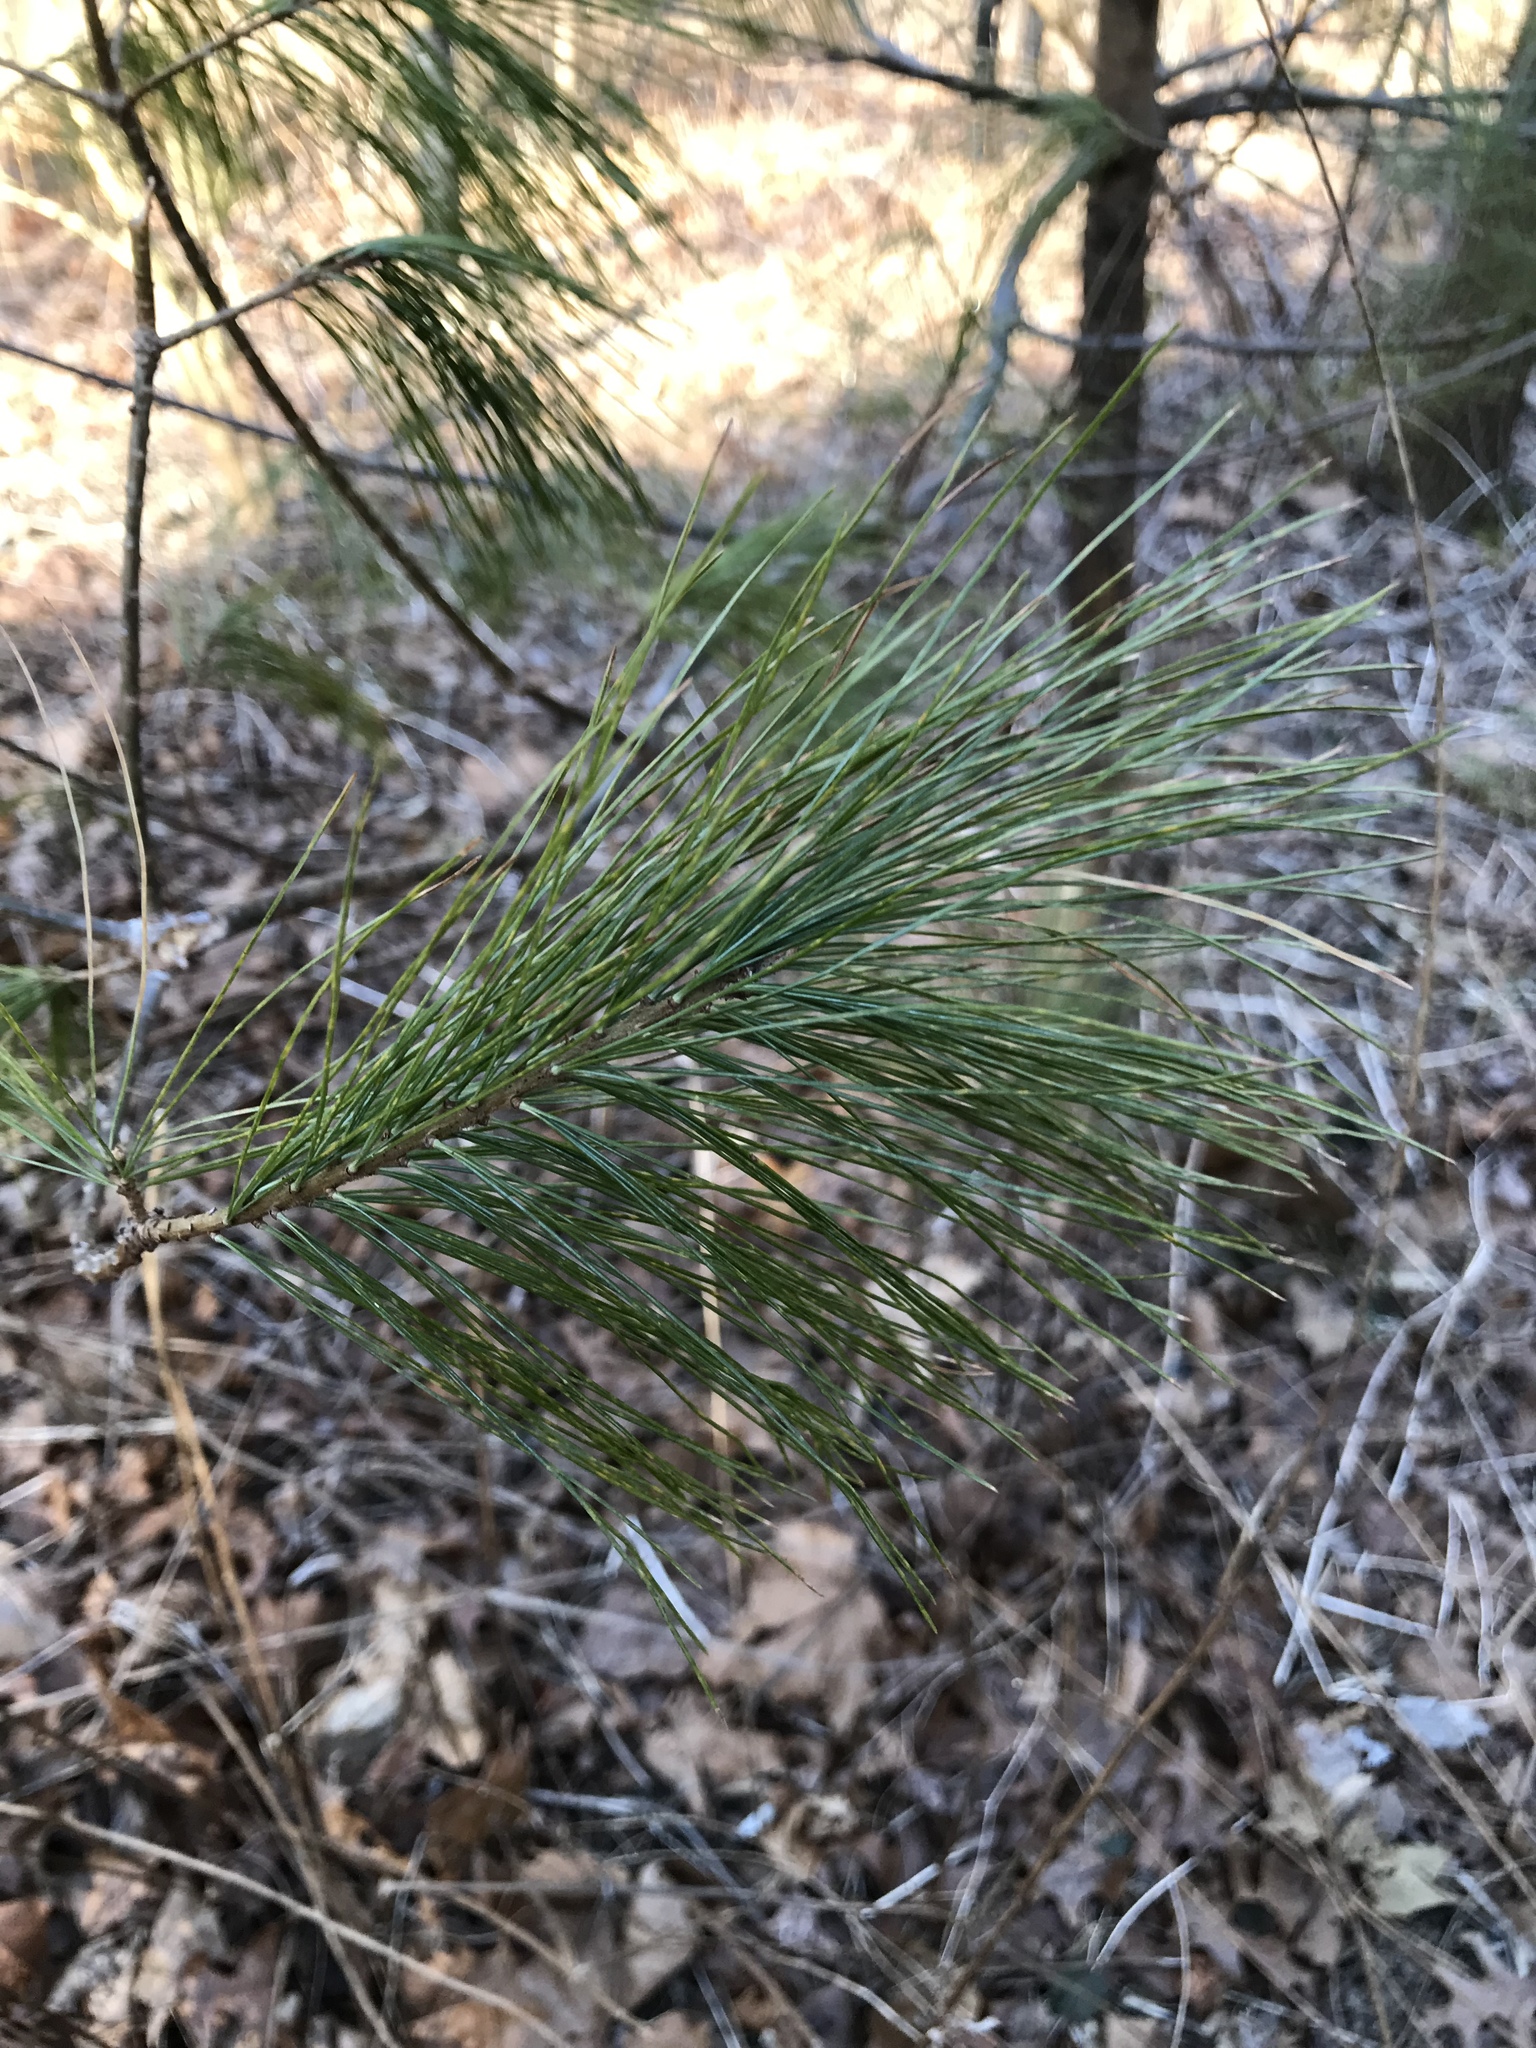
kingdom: Plantae
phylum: Tracheophyta
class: Pinopsida
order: Pinales
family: Pinaceae
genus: Pinus
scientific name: Pinus strobus
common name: Weymouth pine
